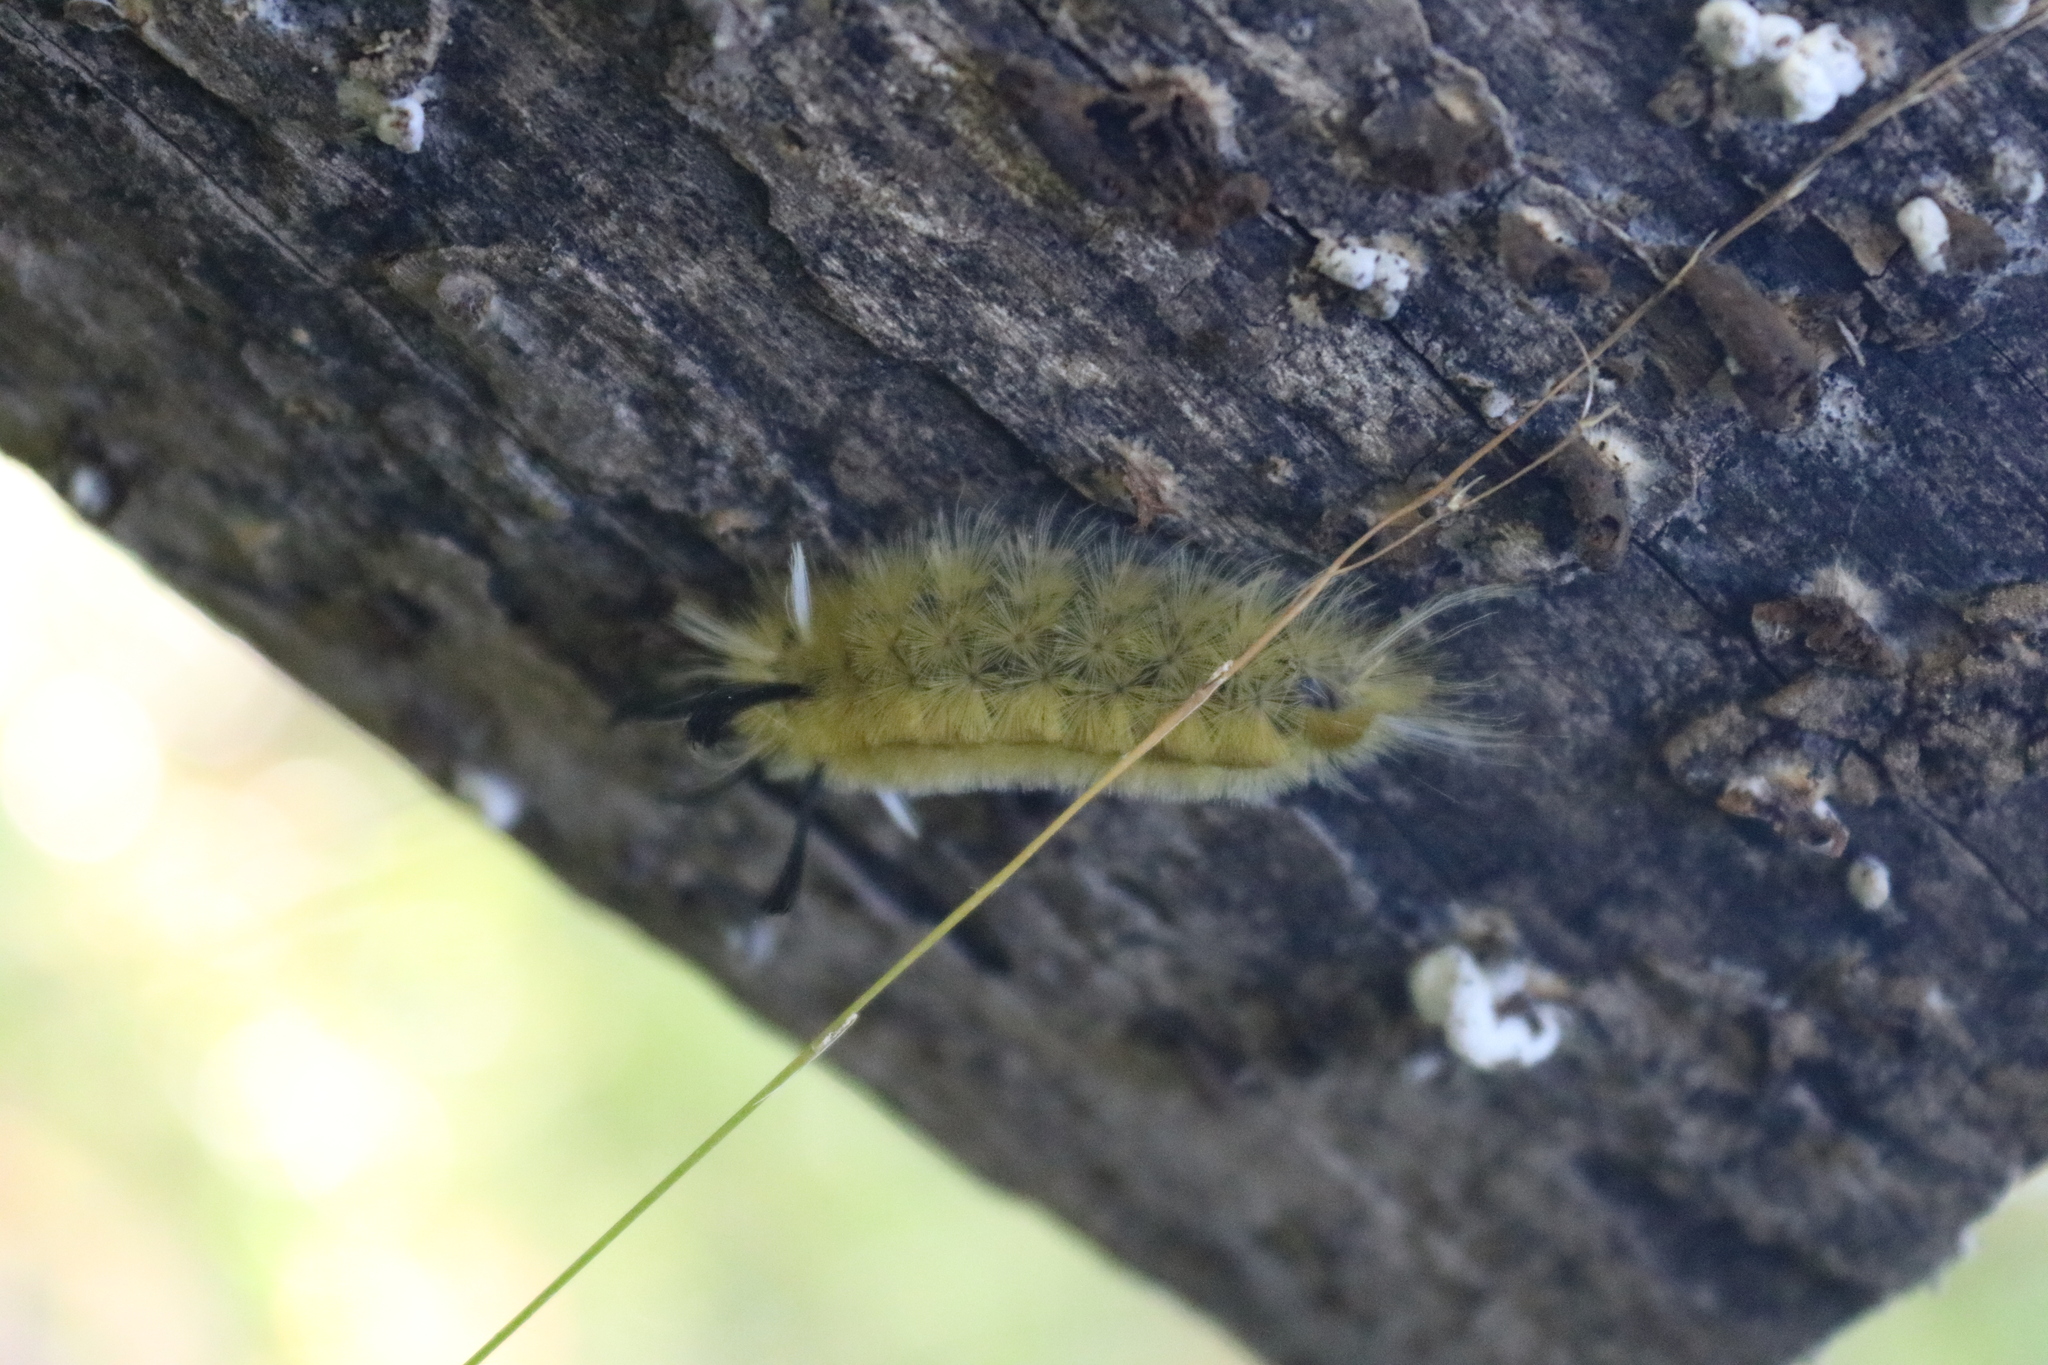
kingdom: Animalia
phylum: Arthropoda
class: Insecta
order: Lepidoptera
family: Erebidae
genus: Halysidota
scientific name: Halysidota tessellaris
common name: Banded tussock moth
